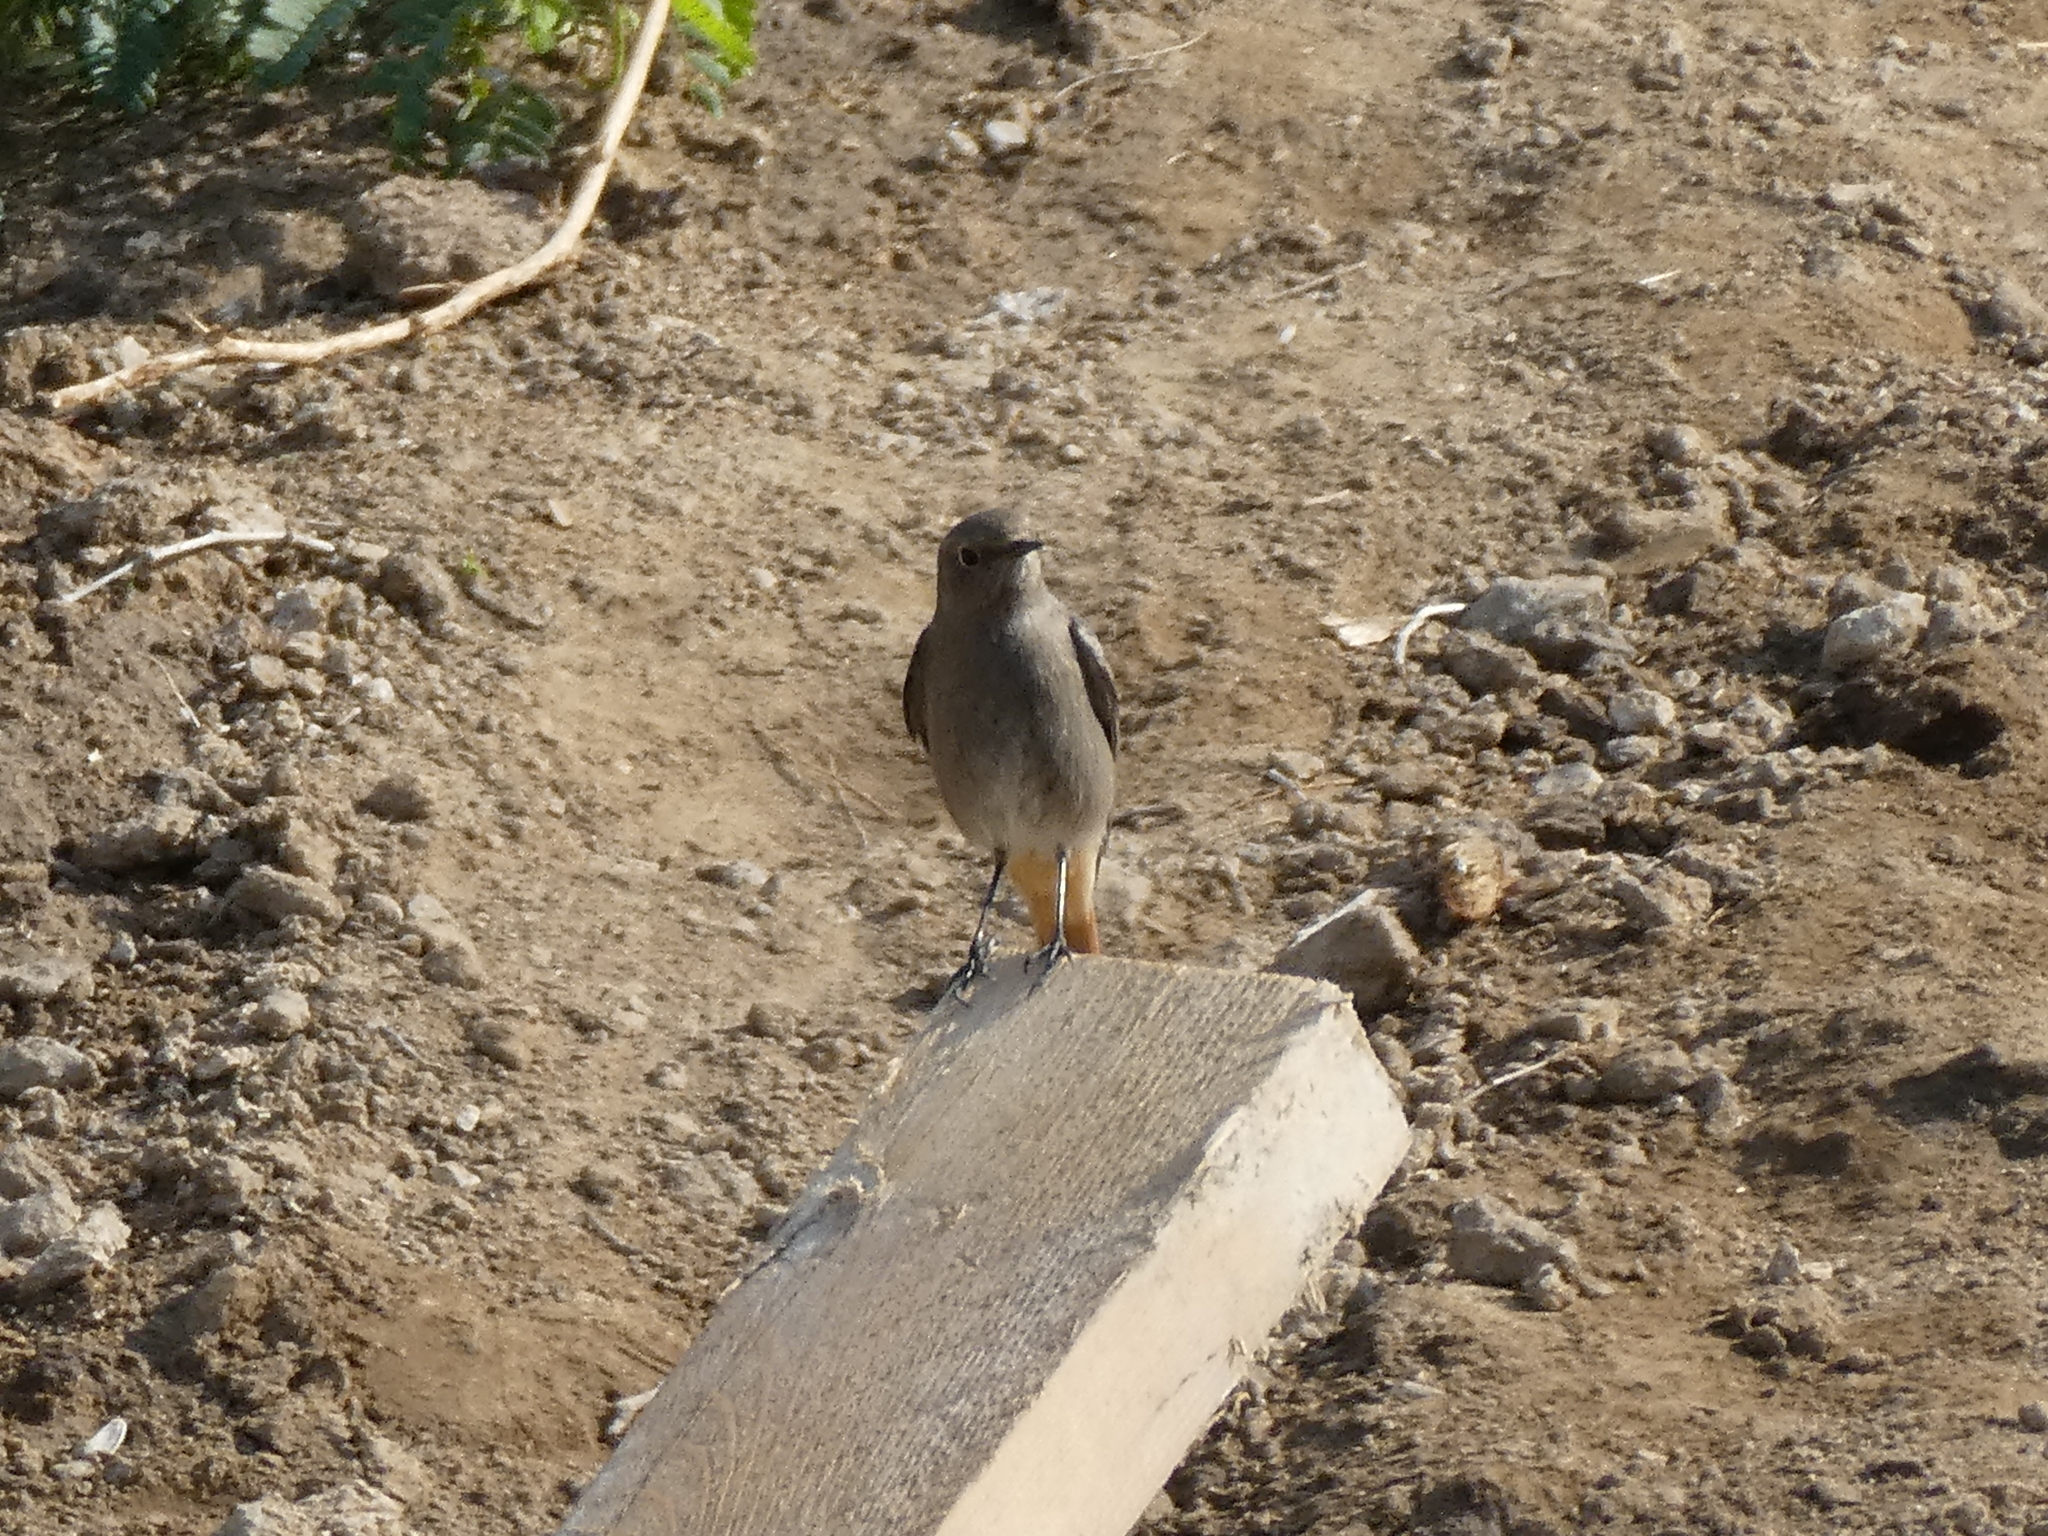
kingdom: Animalia
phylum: Chordata
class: Aves
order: Passeriformes
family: Muscicapidae
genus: Phoenicurus
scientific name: Phoenicurus ochruros
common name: Black redstart
